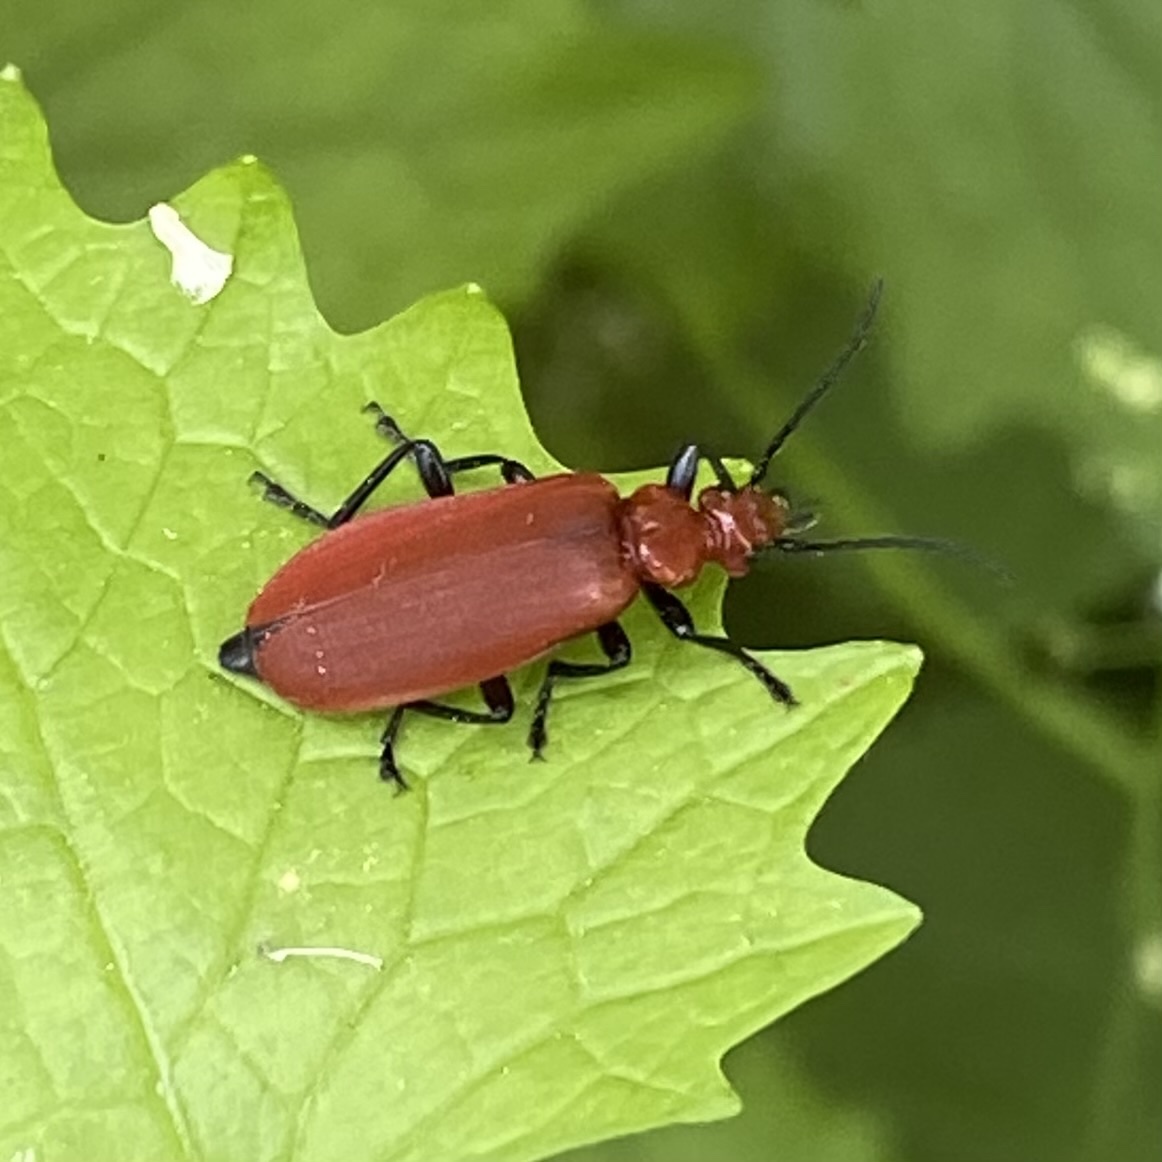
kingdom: Animalia
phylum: Arthropoda
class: Insecta
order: Coleoptera
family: Pyrochroidae
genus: Pyrochroa
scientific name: Pyrochroa serraticornis
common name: Red-headed cardinal beetle
